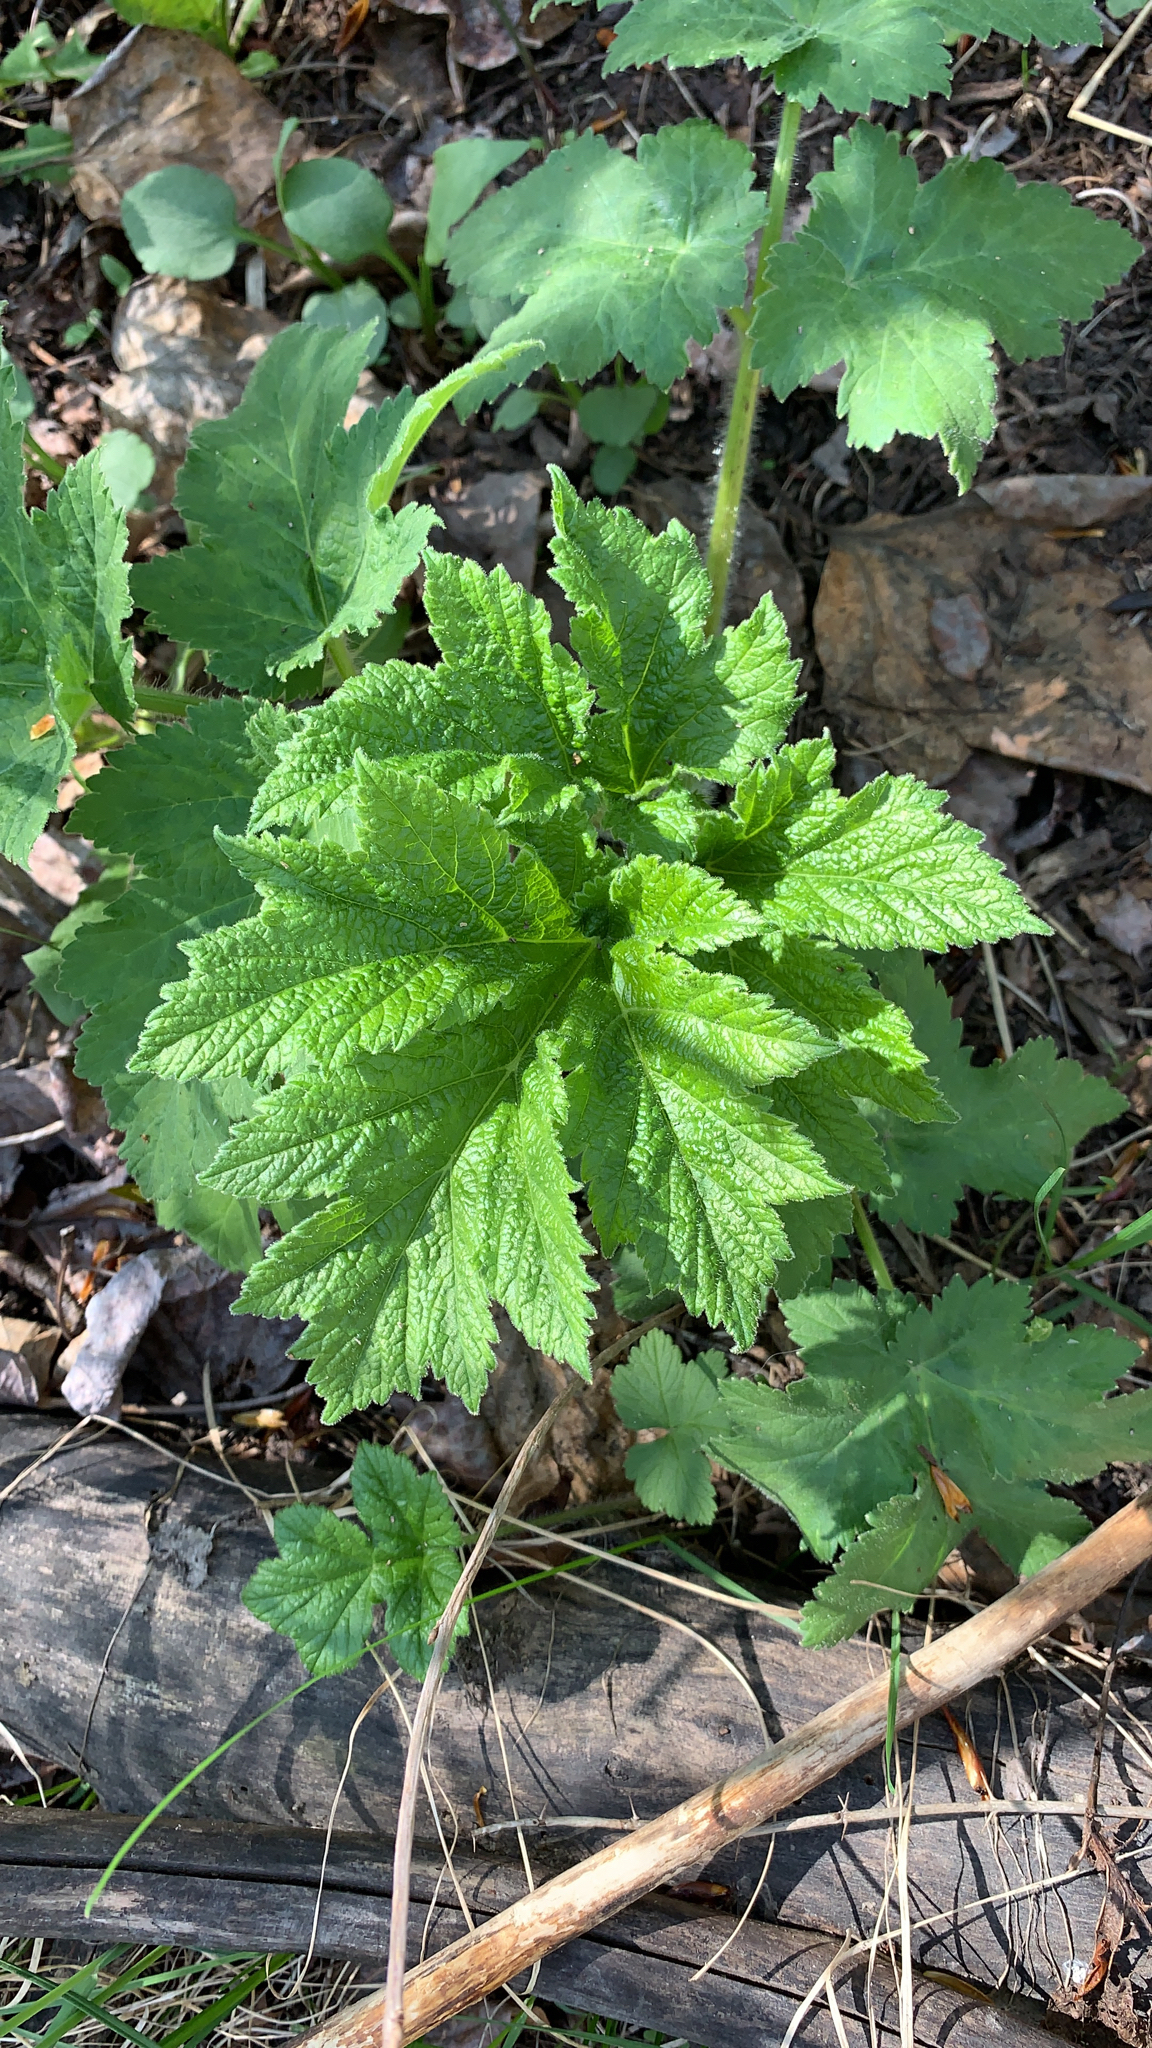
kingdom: Plantae
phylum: Tracheophyta
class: Magnoliopsida
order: Apiales
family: Apiaceae
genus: Heracleum
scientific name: Heracleum maximum
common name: American cow parsnip
